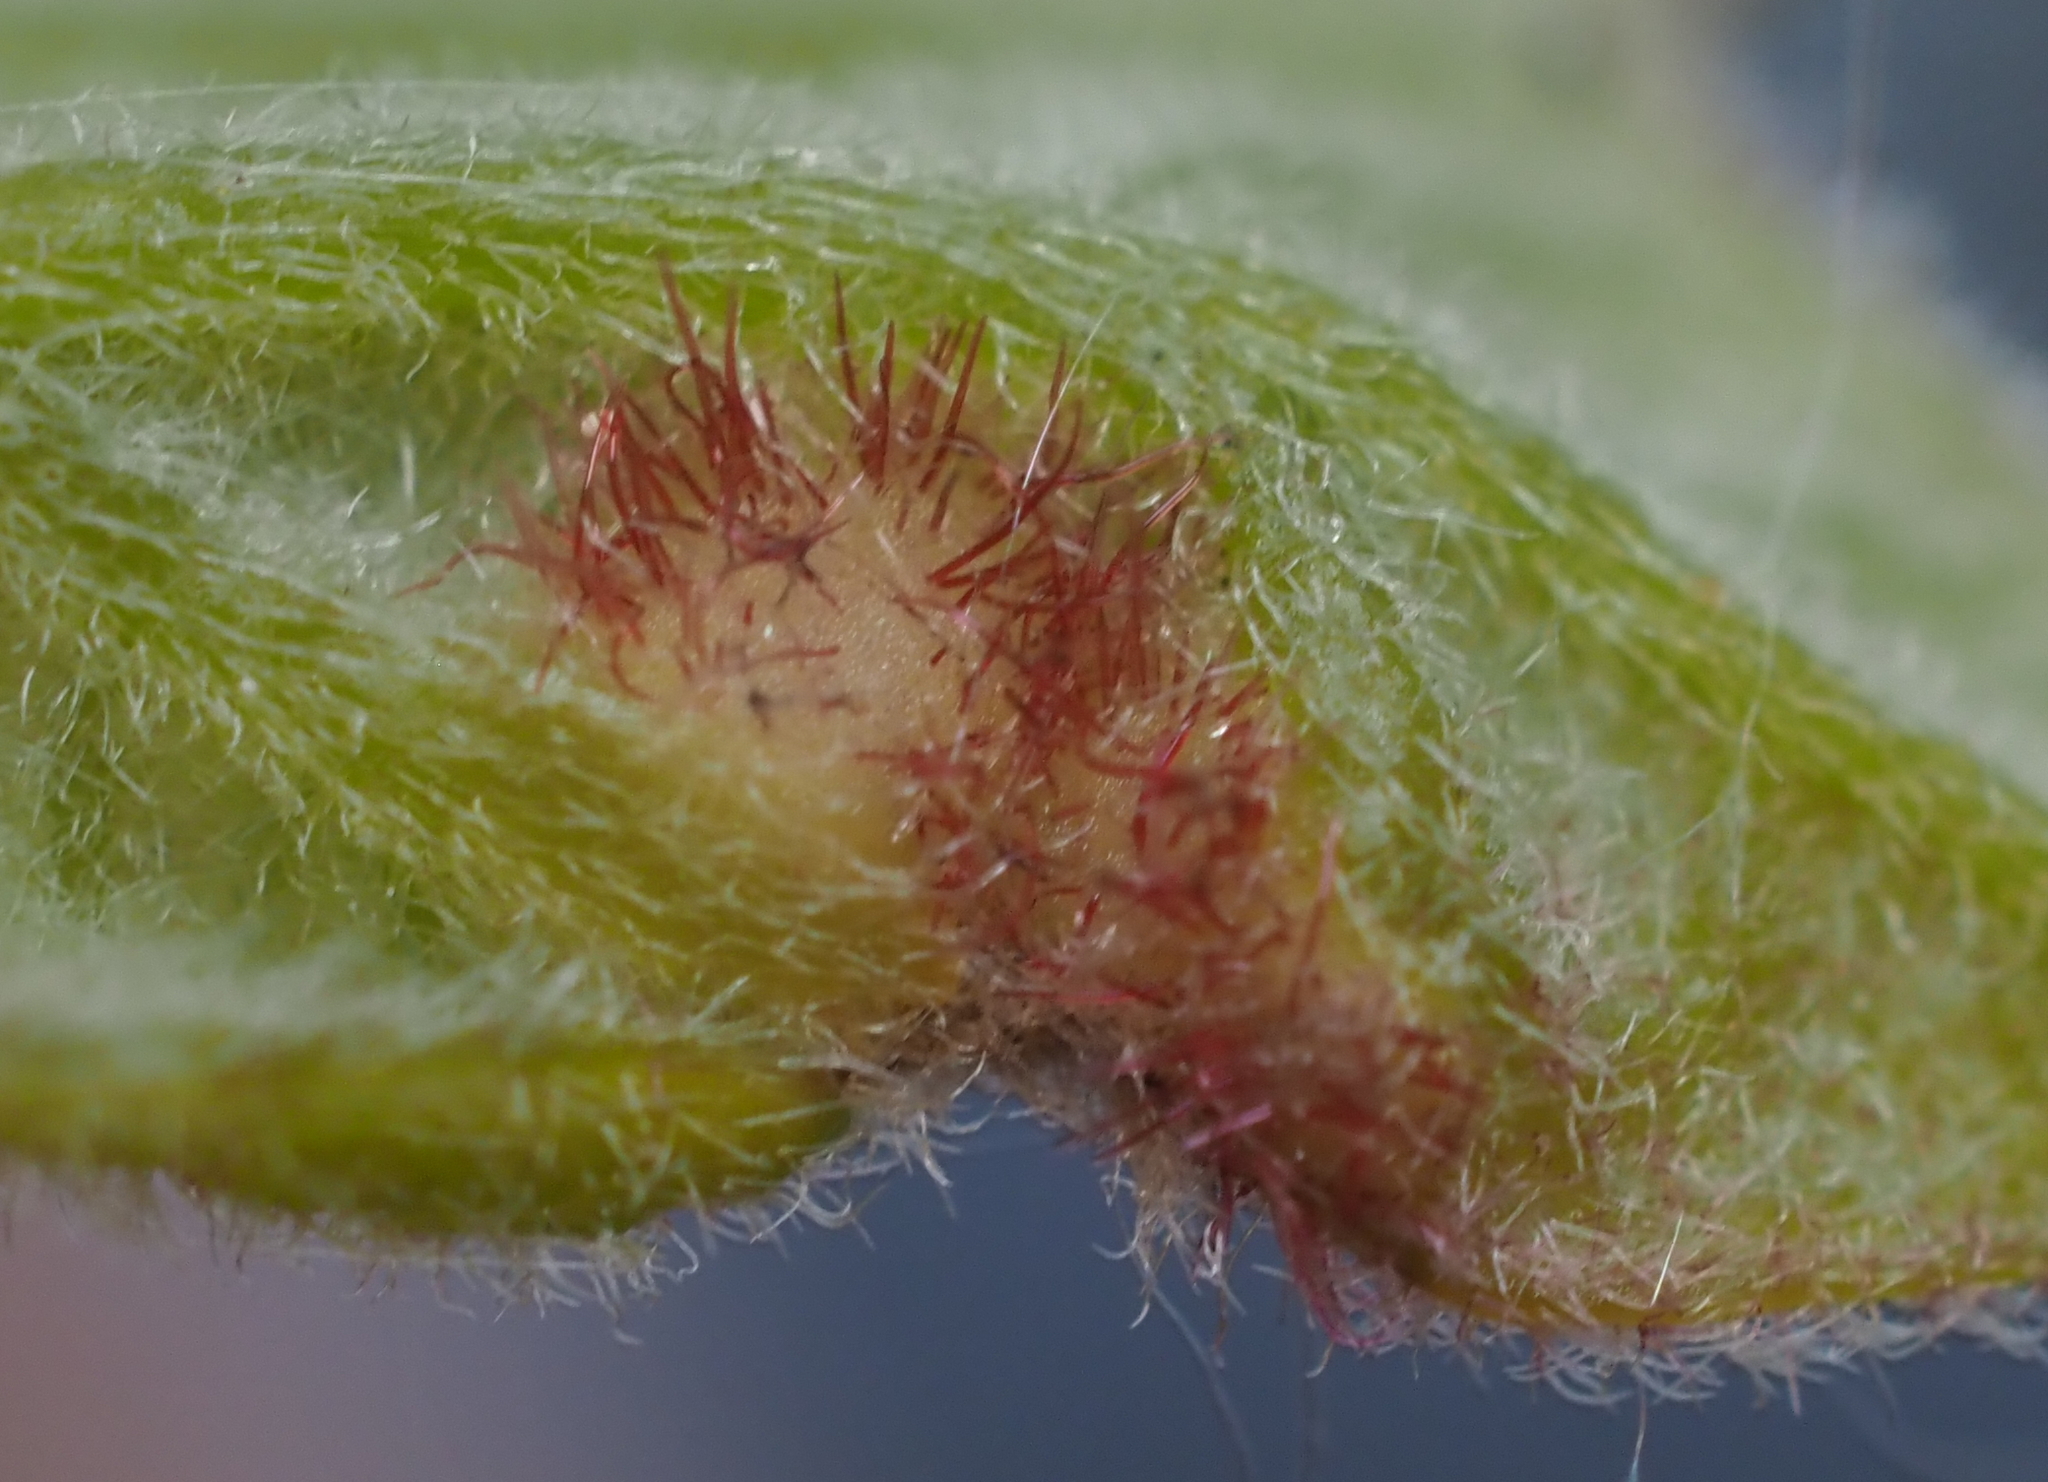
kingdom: Animalia
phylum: Arthropoda
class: Insecta
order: Hymenoptera
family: Cynipidae
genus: Neuroterus
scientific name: Neuroterus
